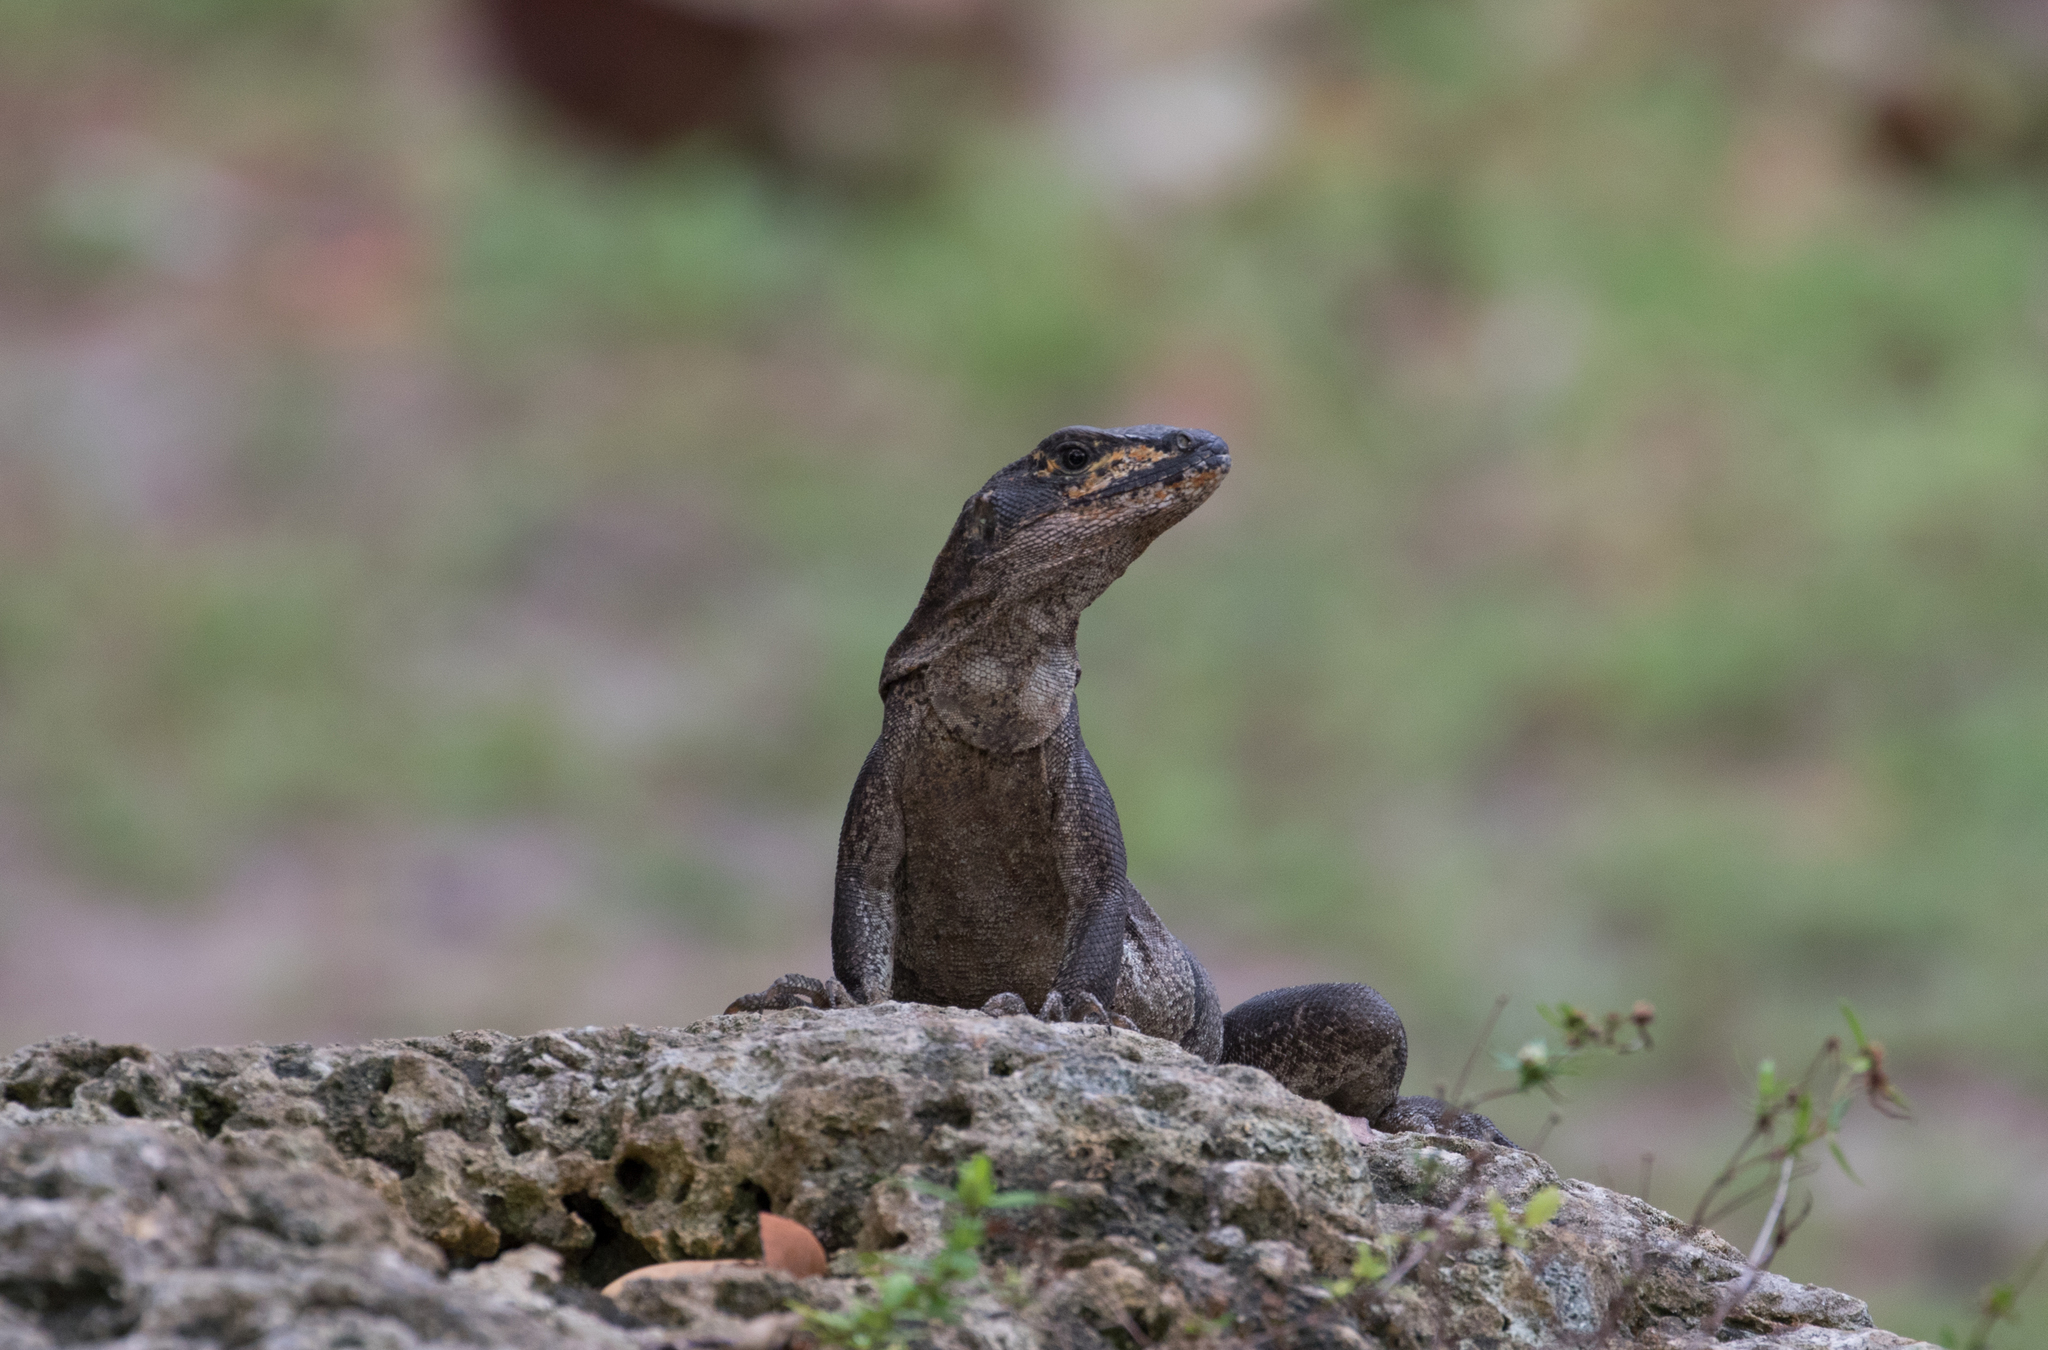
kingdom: Animalia
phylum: Chordata
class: Squamata
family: Iguanidae
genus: Ctenosaura
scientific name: Ctenosaura similis
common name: Black spiny-tailed iguana
